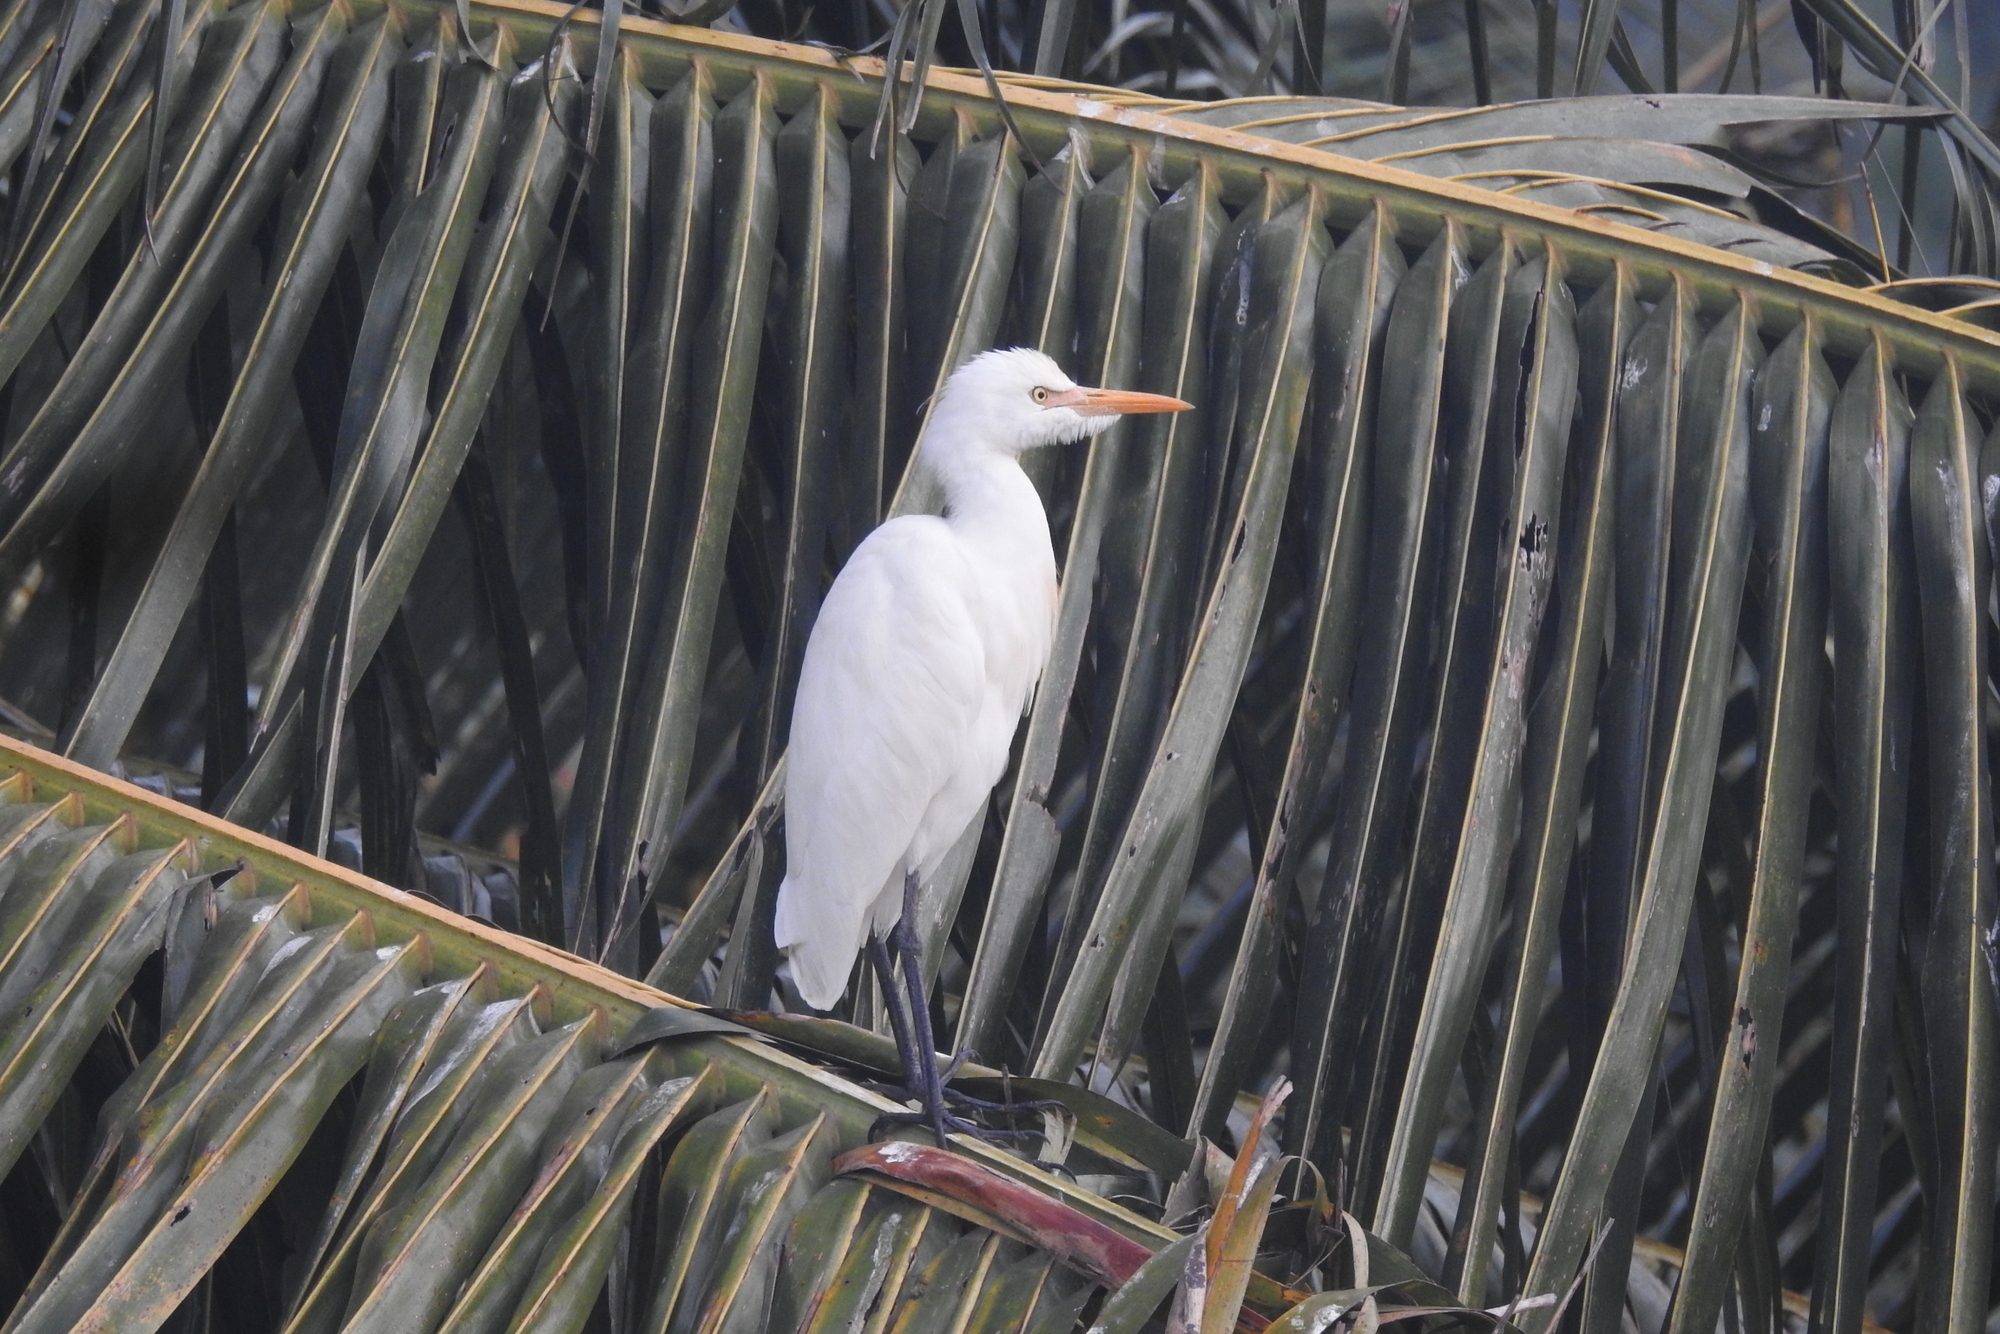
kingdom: Animalia
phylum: Chordata
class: Aves
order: Pelecaniformes
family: Ardeidae
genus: Bubulcus
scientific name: Bubulcus coromandus
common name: Eastern cattle egret
